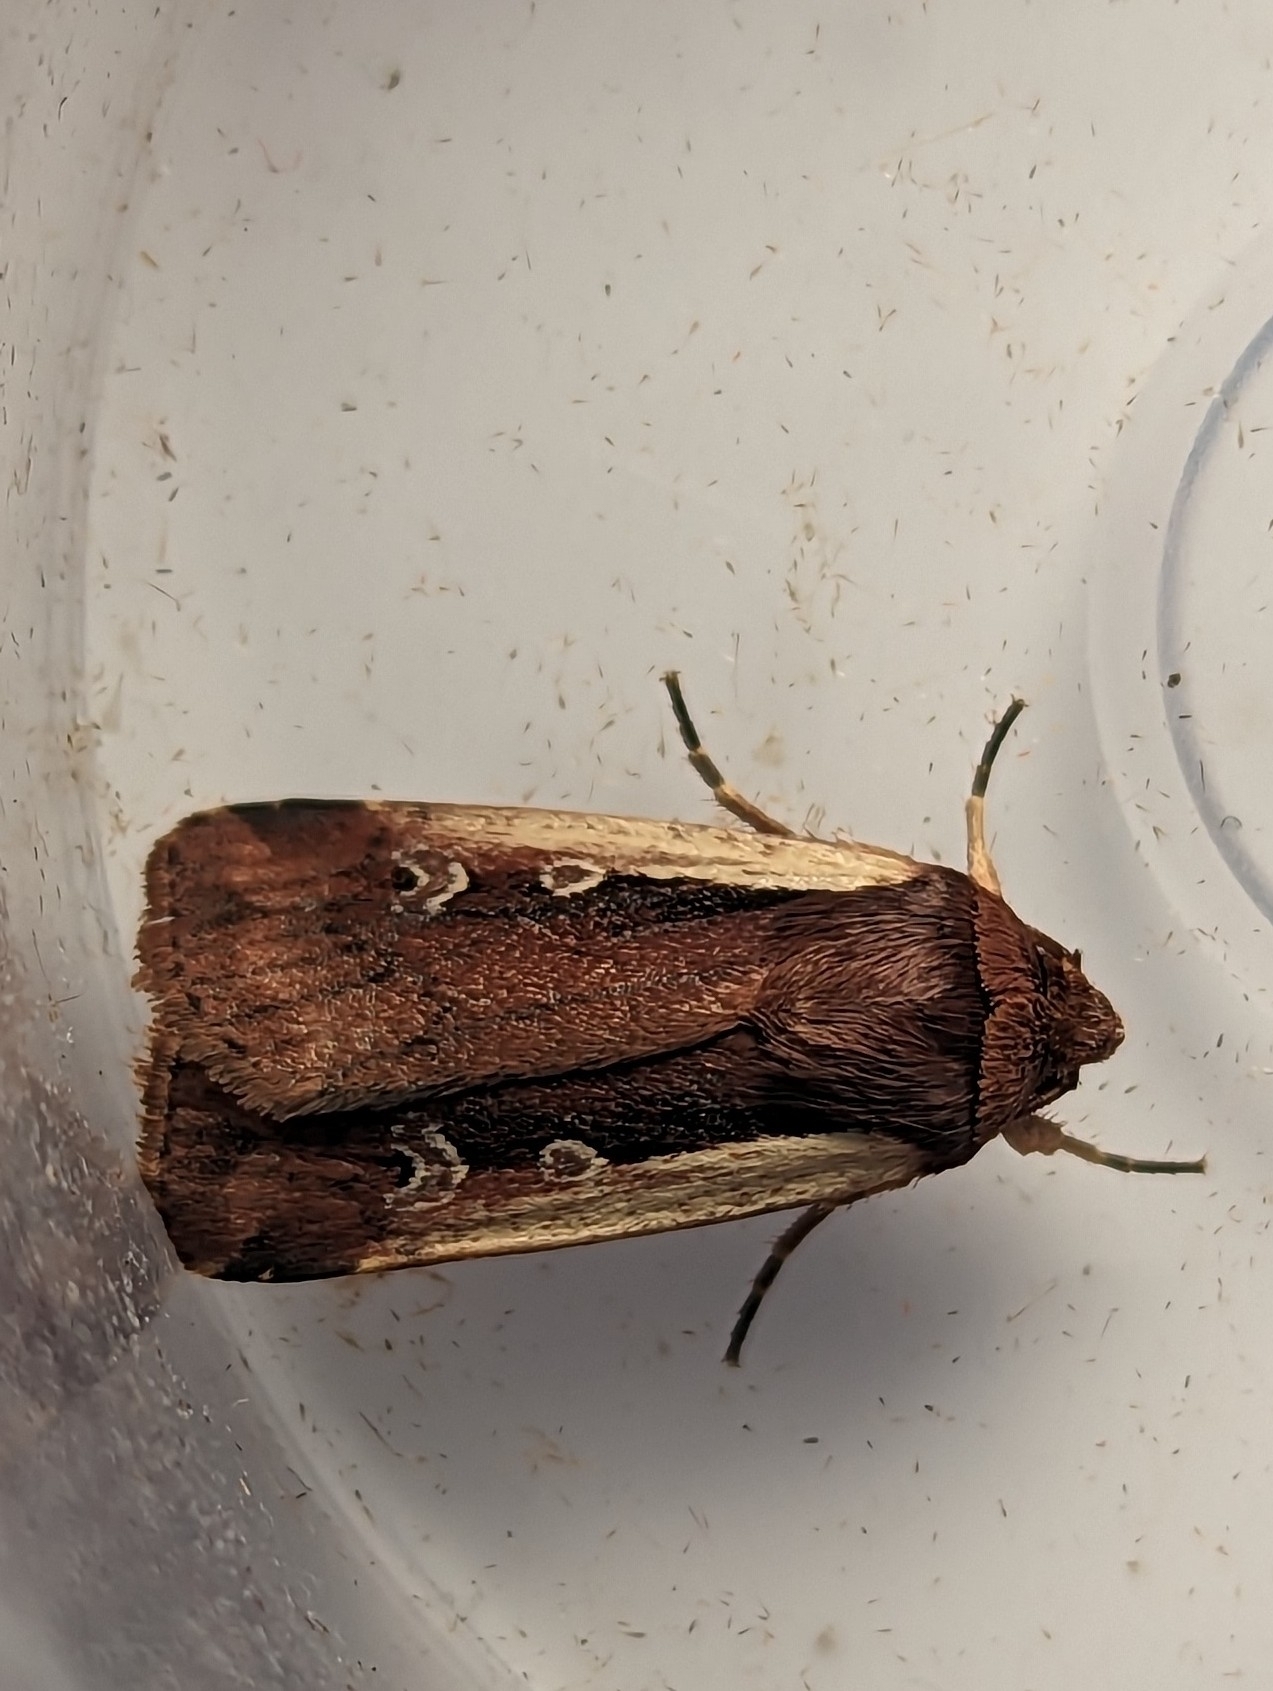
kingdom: Animalia
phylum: Arthropoda
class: Insecta
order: Lepidoptera
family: Noctuidae
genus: Ochropleura
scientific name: Ochropleura plecta
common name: Flame shoulder
